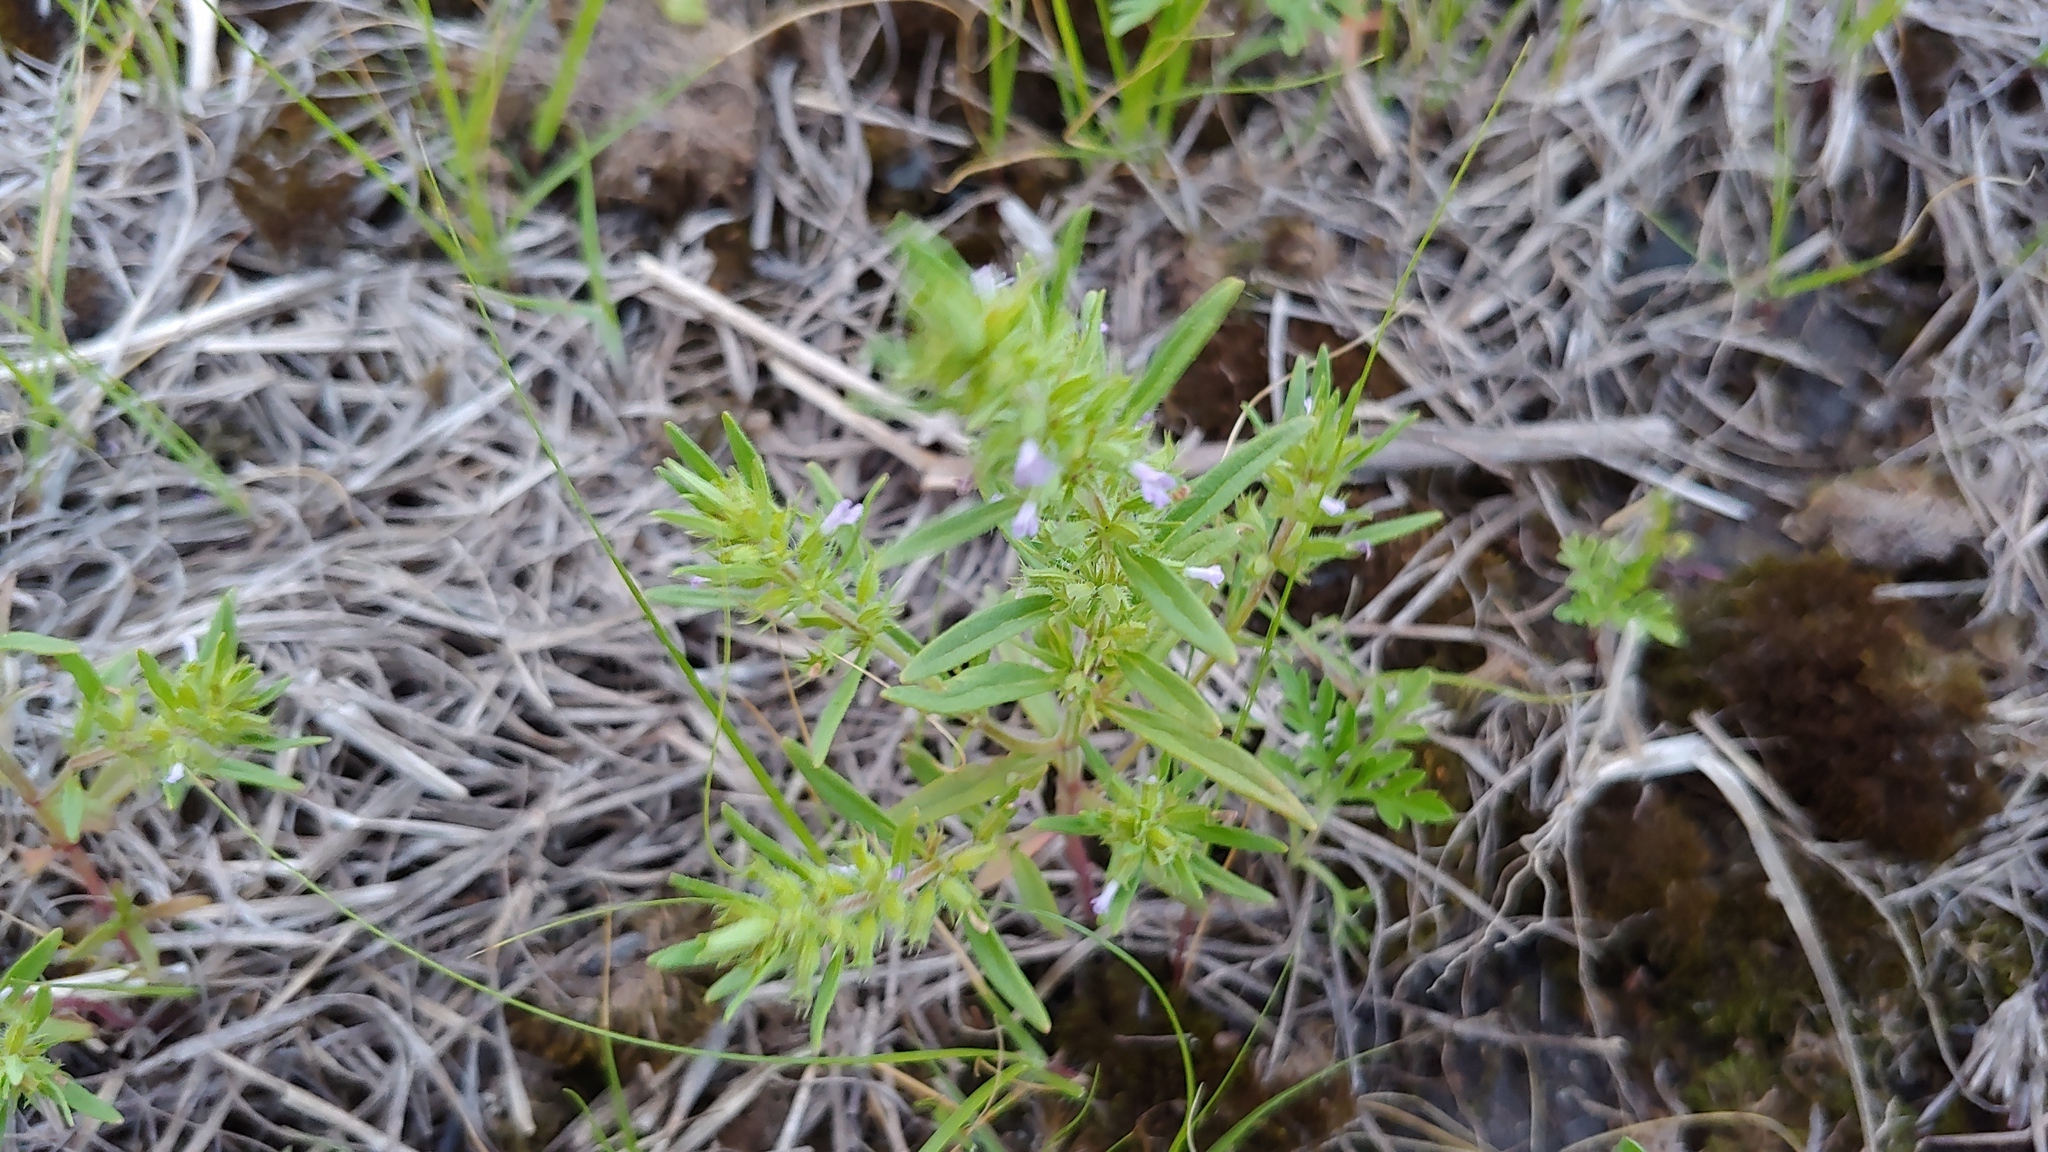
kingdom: Plantae
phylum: Tracheophyta
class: Magnoliopsida
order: Lamiales
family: Lamiaceae
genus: Hedeoma
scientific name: Hedeoma hispida
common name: Mock pennyroyal
